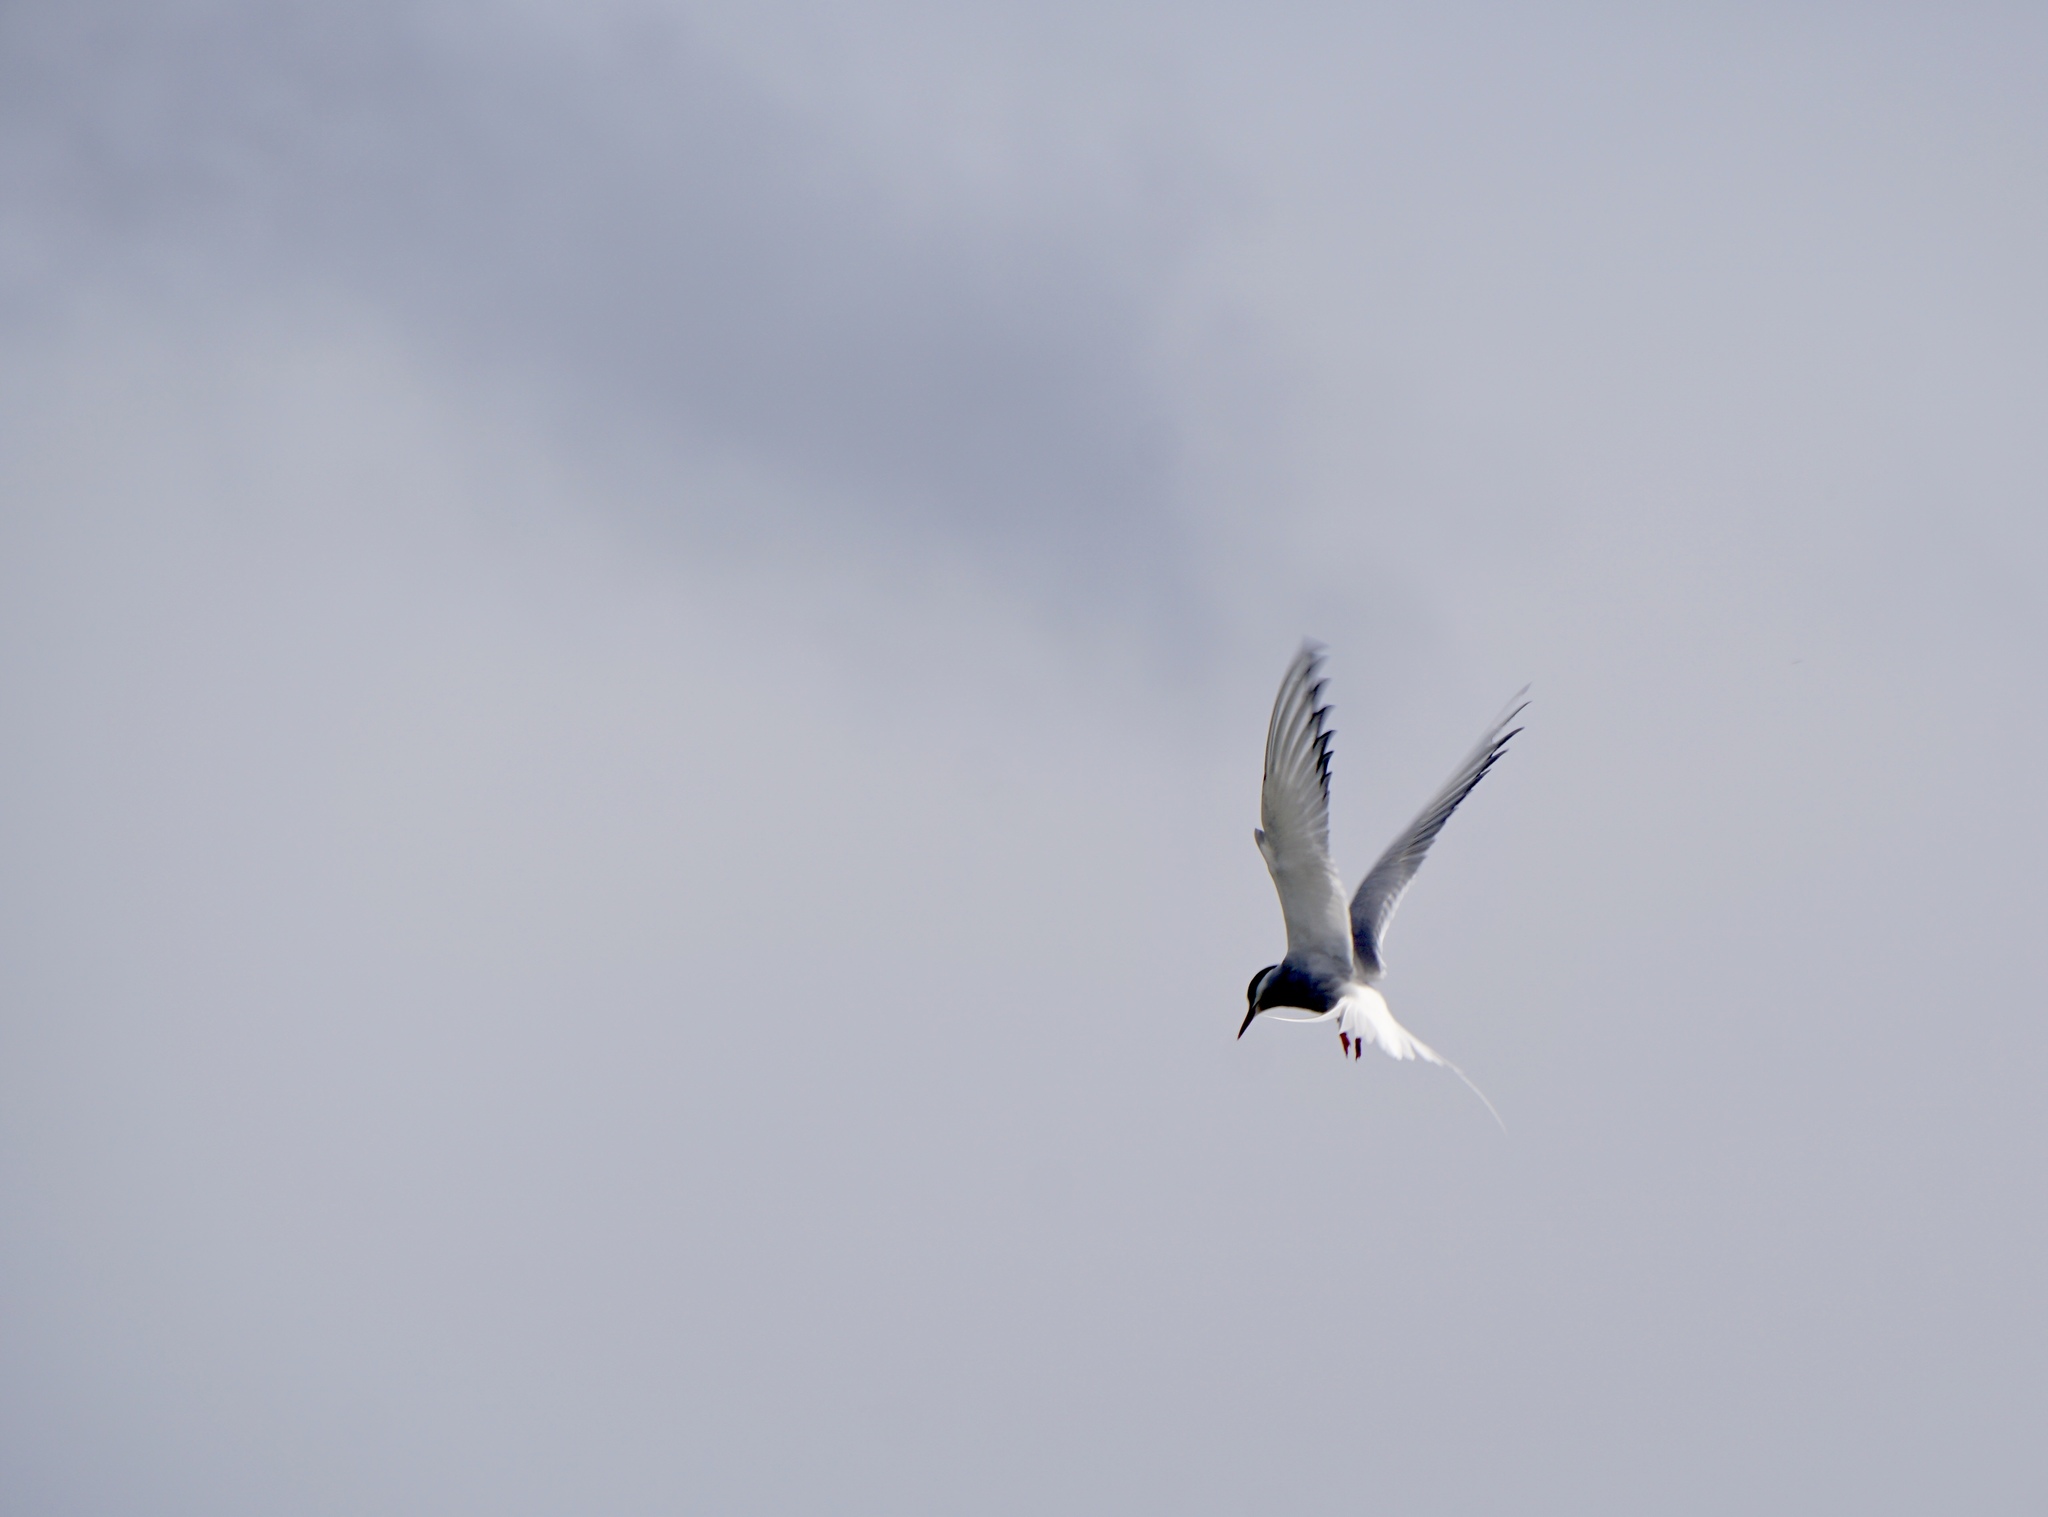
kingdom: Animalia
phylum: Chordata
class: Aves
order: Charadriiformes
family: Laridae
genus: Sterna
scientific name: Sterna paradisaea
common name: Arctic tern
